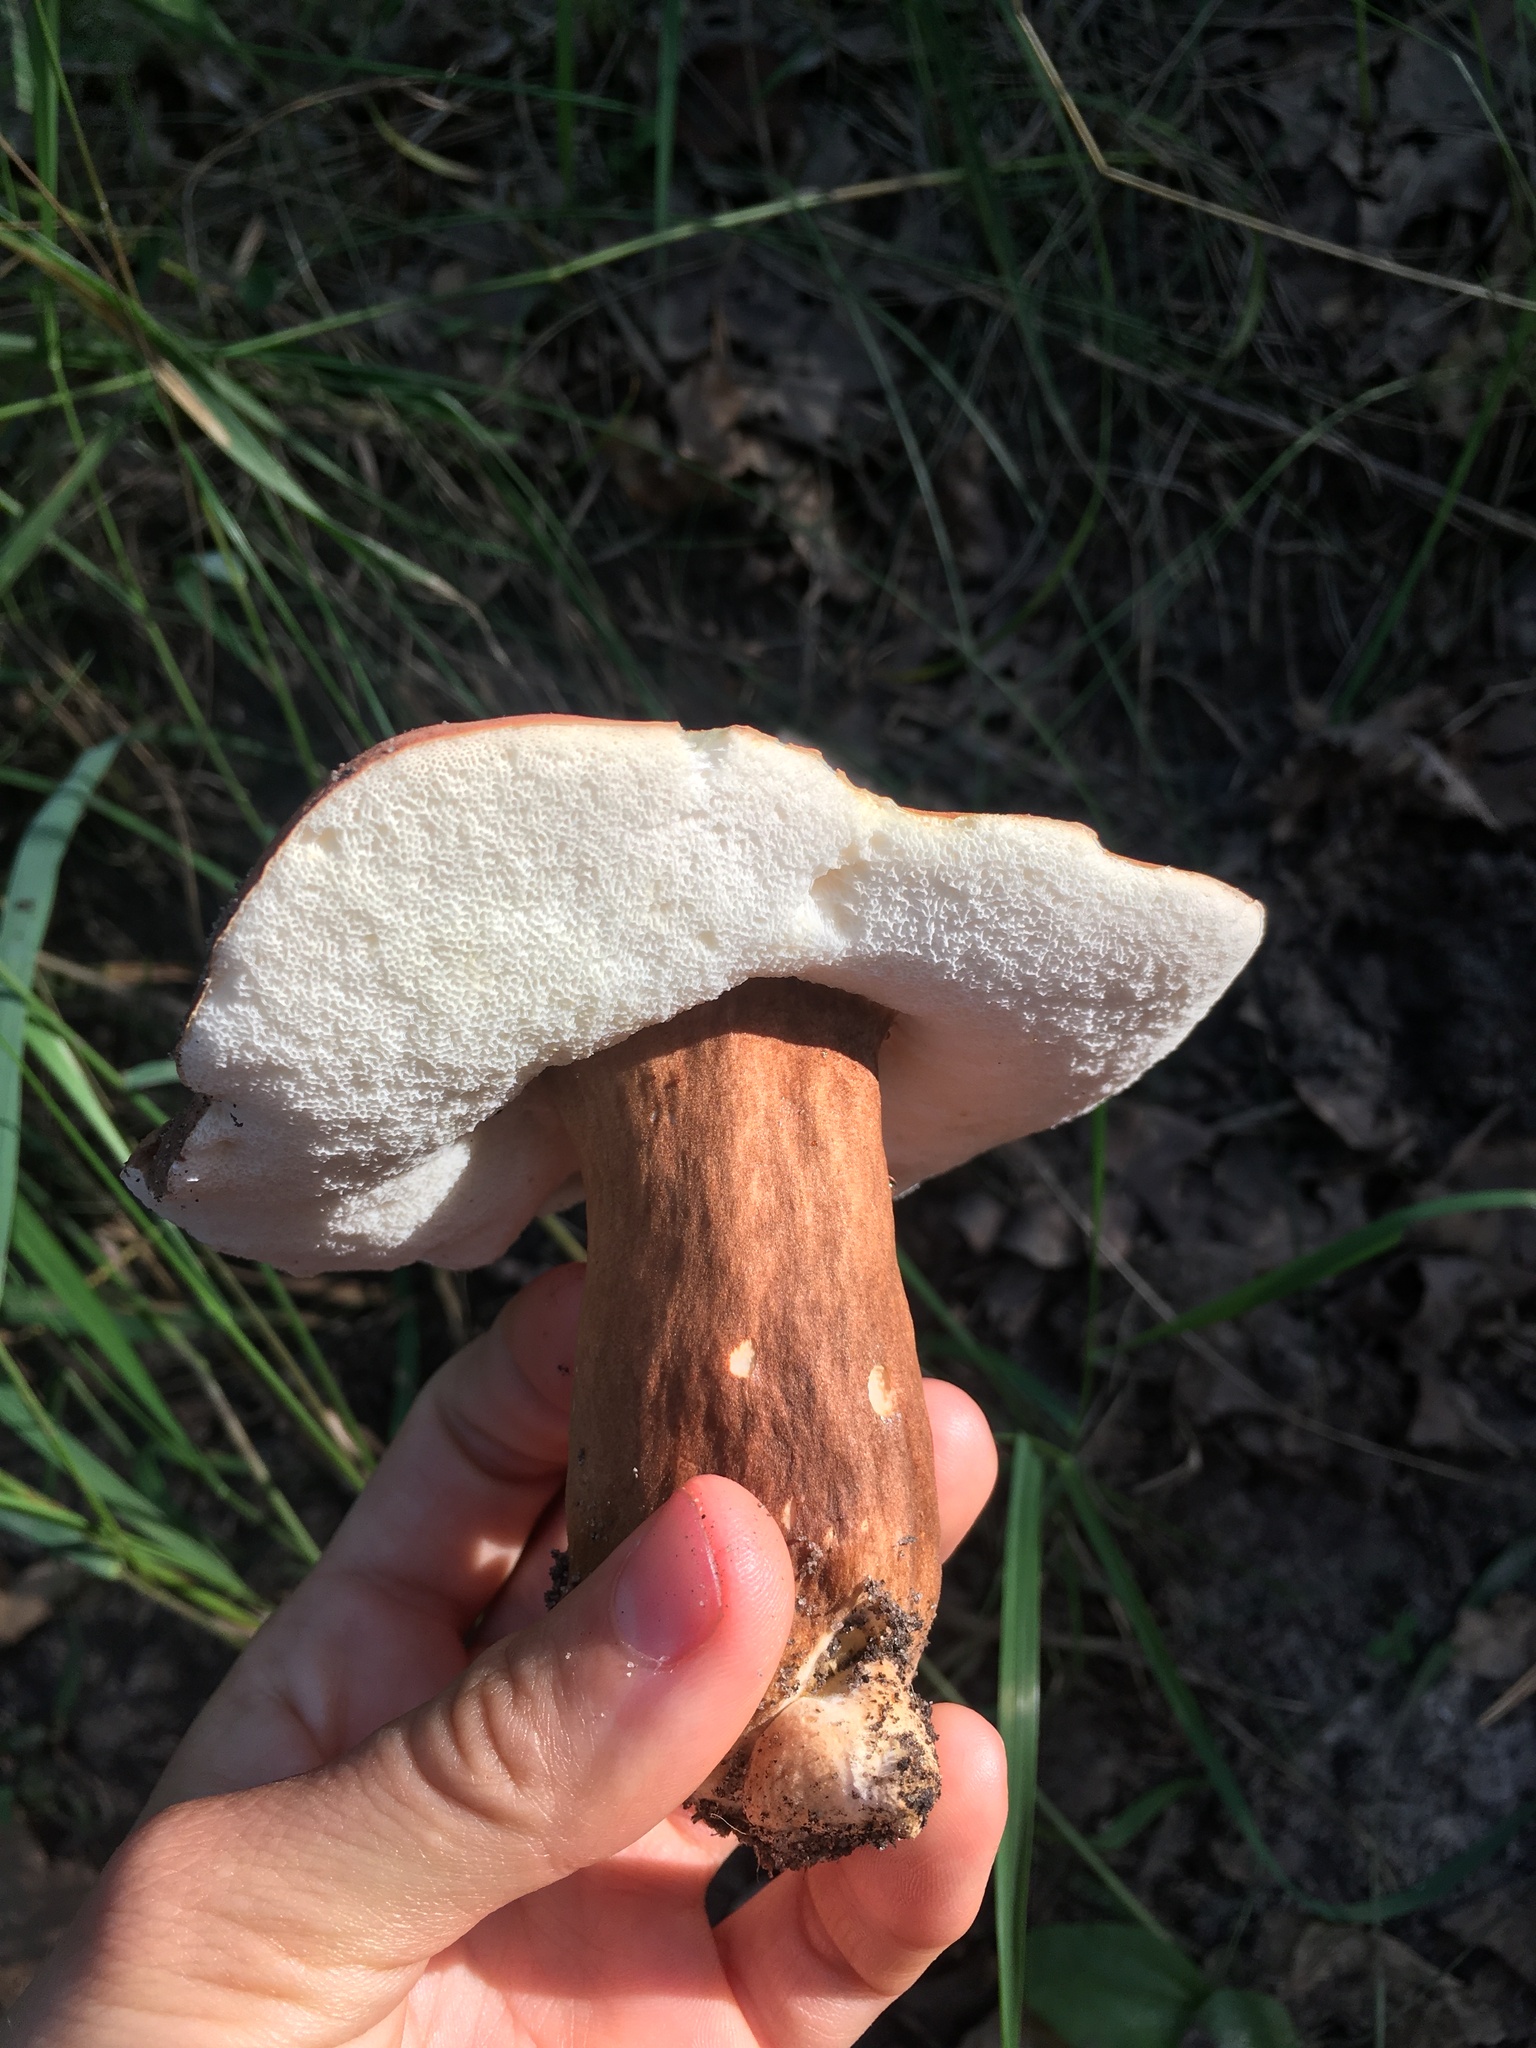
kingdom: Fungi
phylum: Basidiomycota
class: Agaricomycetes
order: Boletales
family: Gyroporaceae
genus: Gyroporus
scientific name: Gyroporus castaneus
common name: Chestnut bolete
